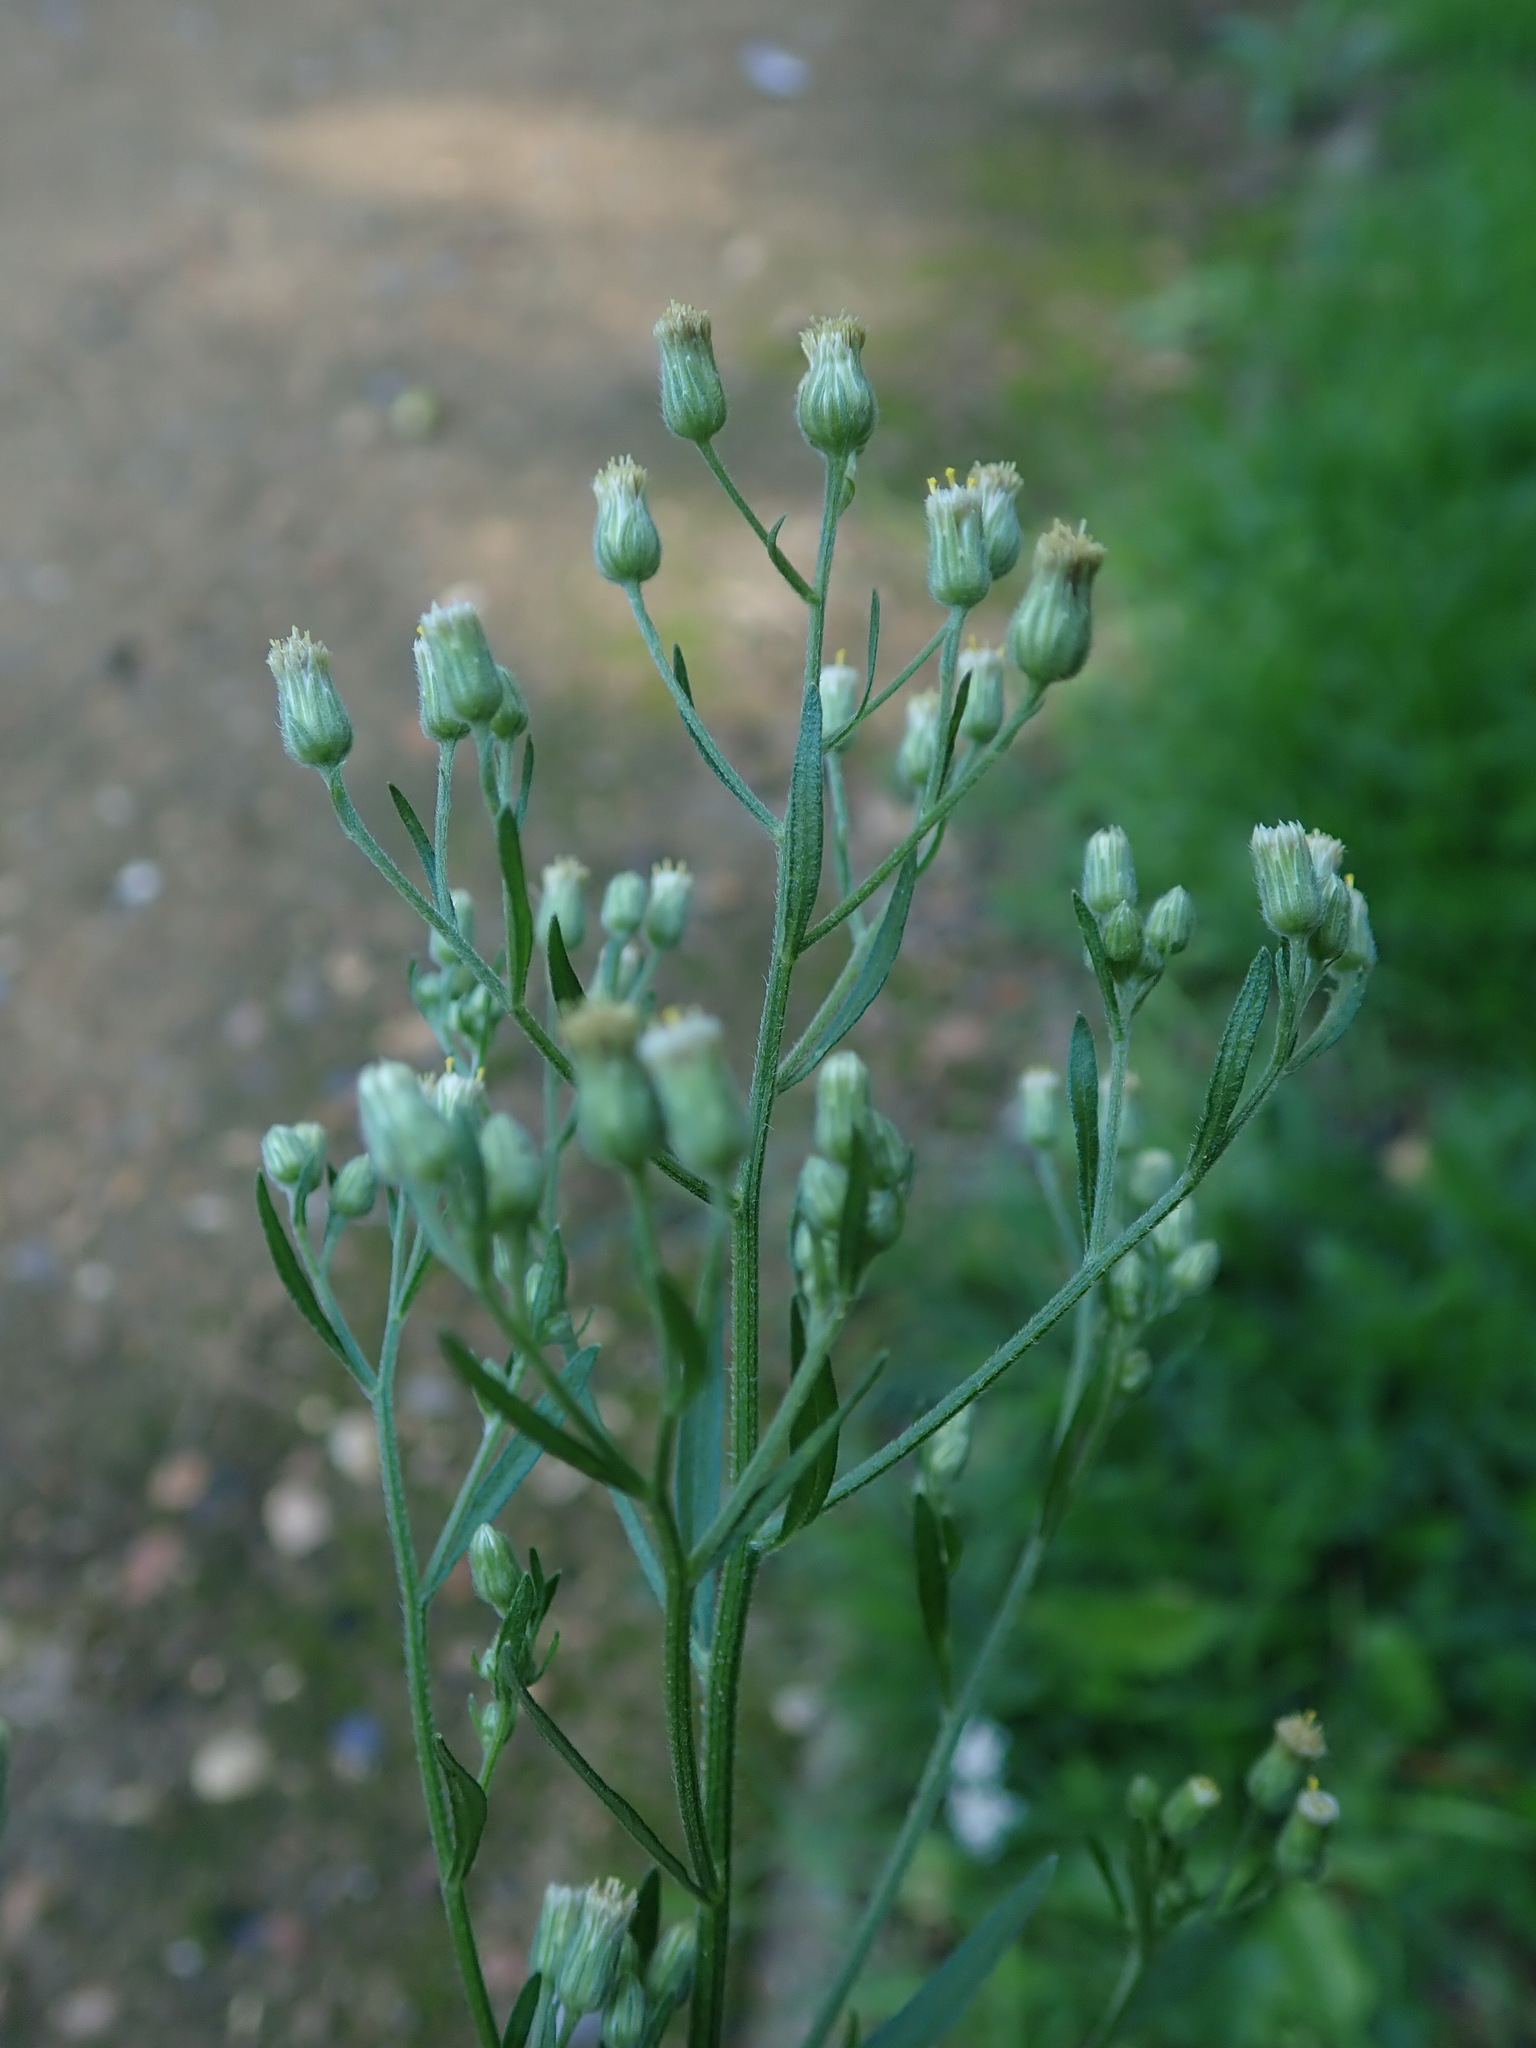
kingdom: Plantae
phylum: Tracheophyta
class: Magnoliopsida
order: Asterales
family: Asteraceae
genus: Erigeron
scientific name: Erigeron sumatrensis
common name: Daisy
